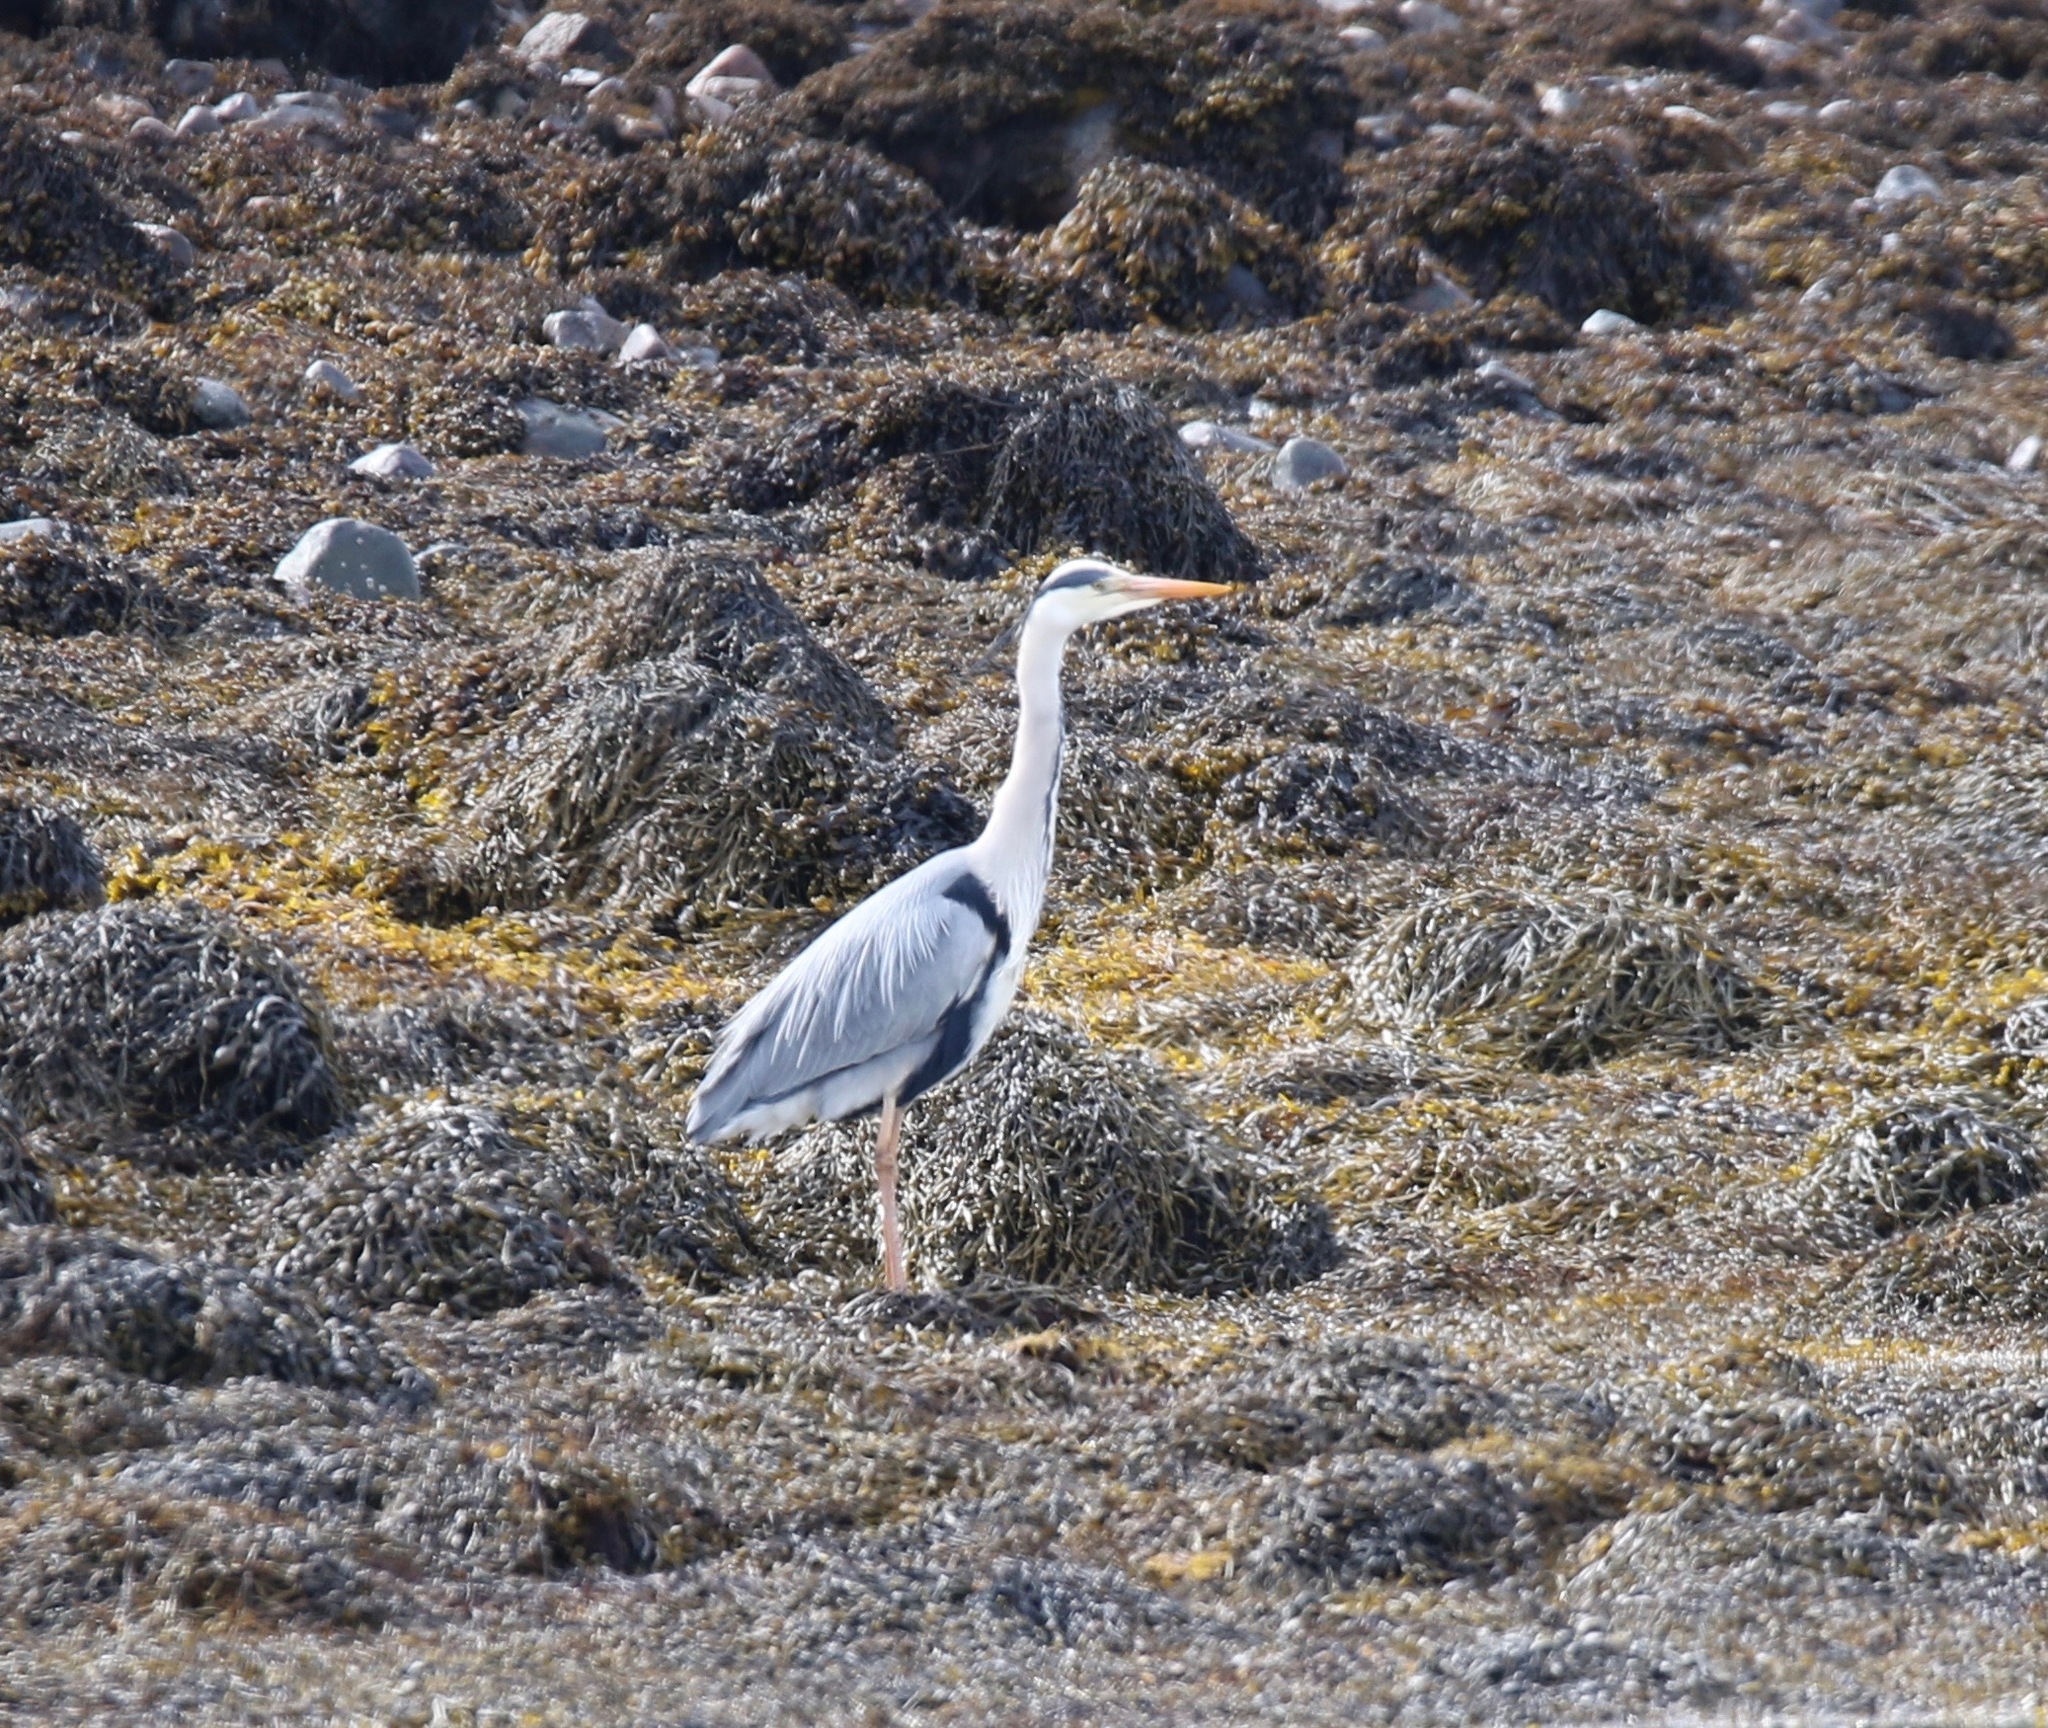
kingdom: Animalia
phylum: Chordata
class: Aves
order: Pelecaniformes
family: Ardeidae
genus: Ardea
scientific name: Ardea cinerea
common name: Grey heron
